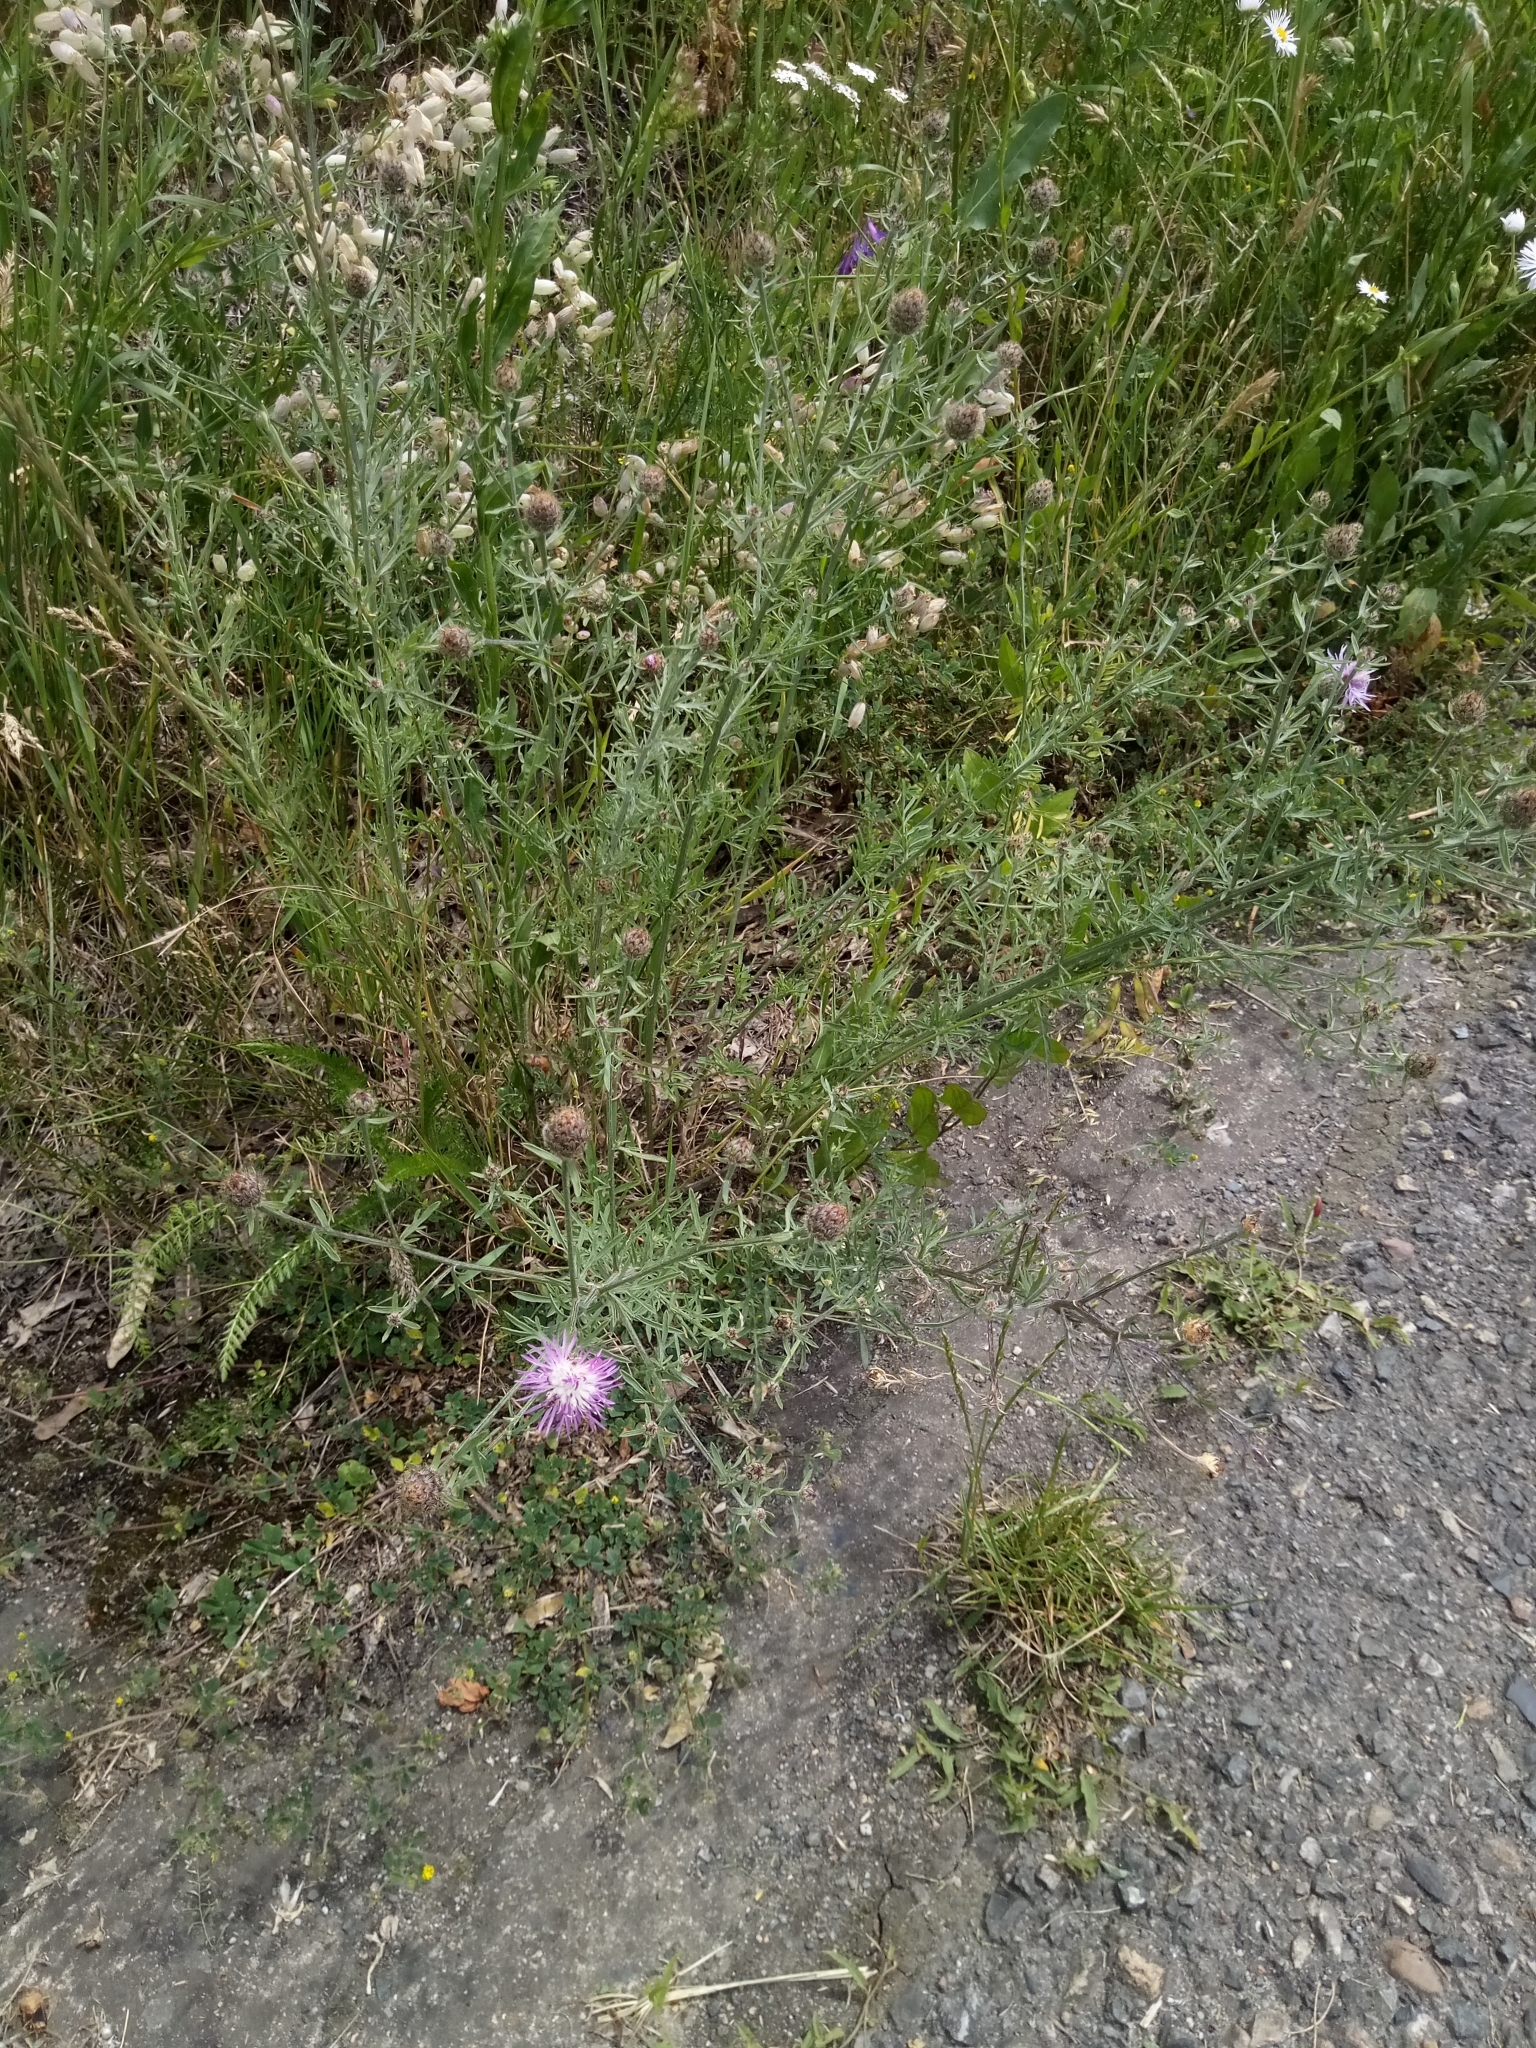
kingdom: Plantae
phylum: Tracheophyta
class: Magnoliopsida
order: Asterales
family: Asteraceae
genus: Centaurea
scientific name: Centaurea stoebe
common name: Spotted knapweed
